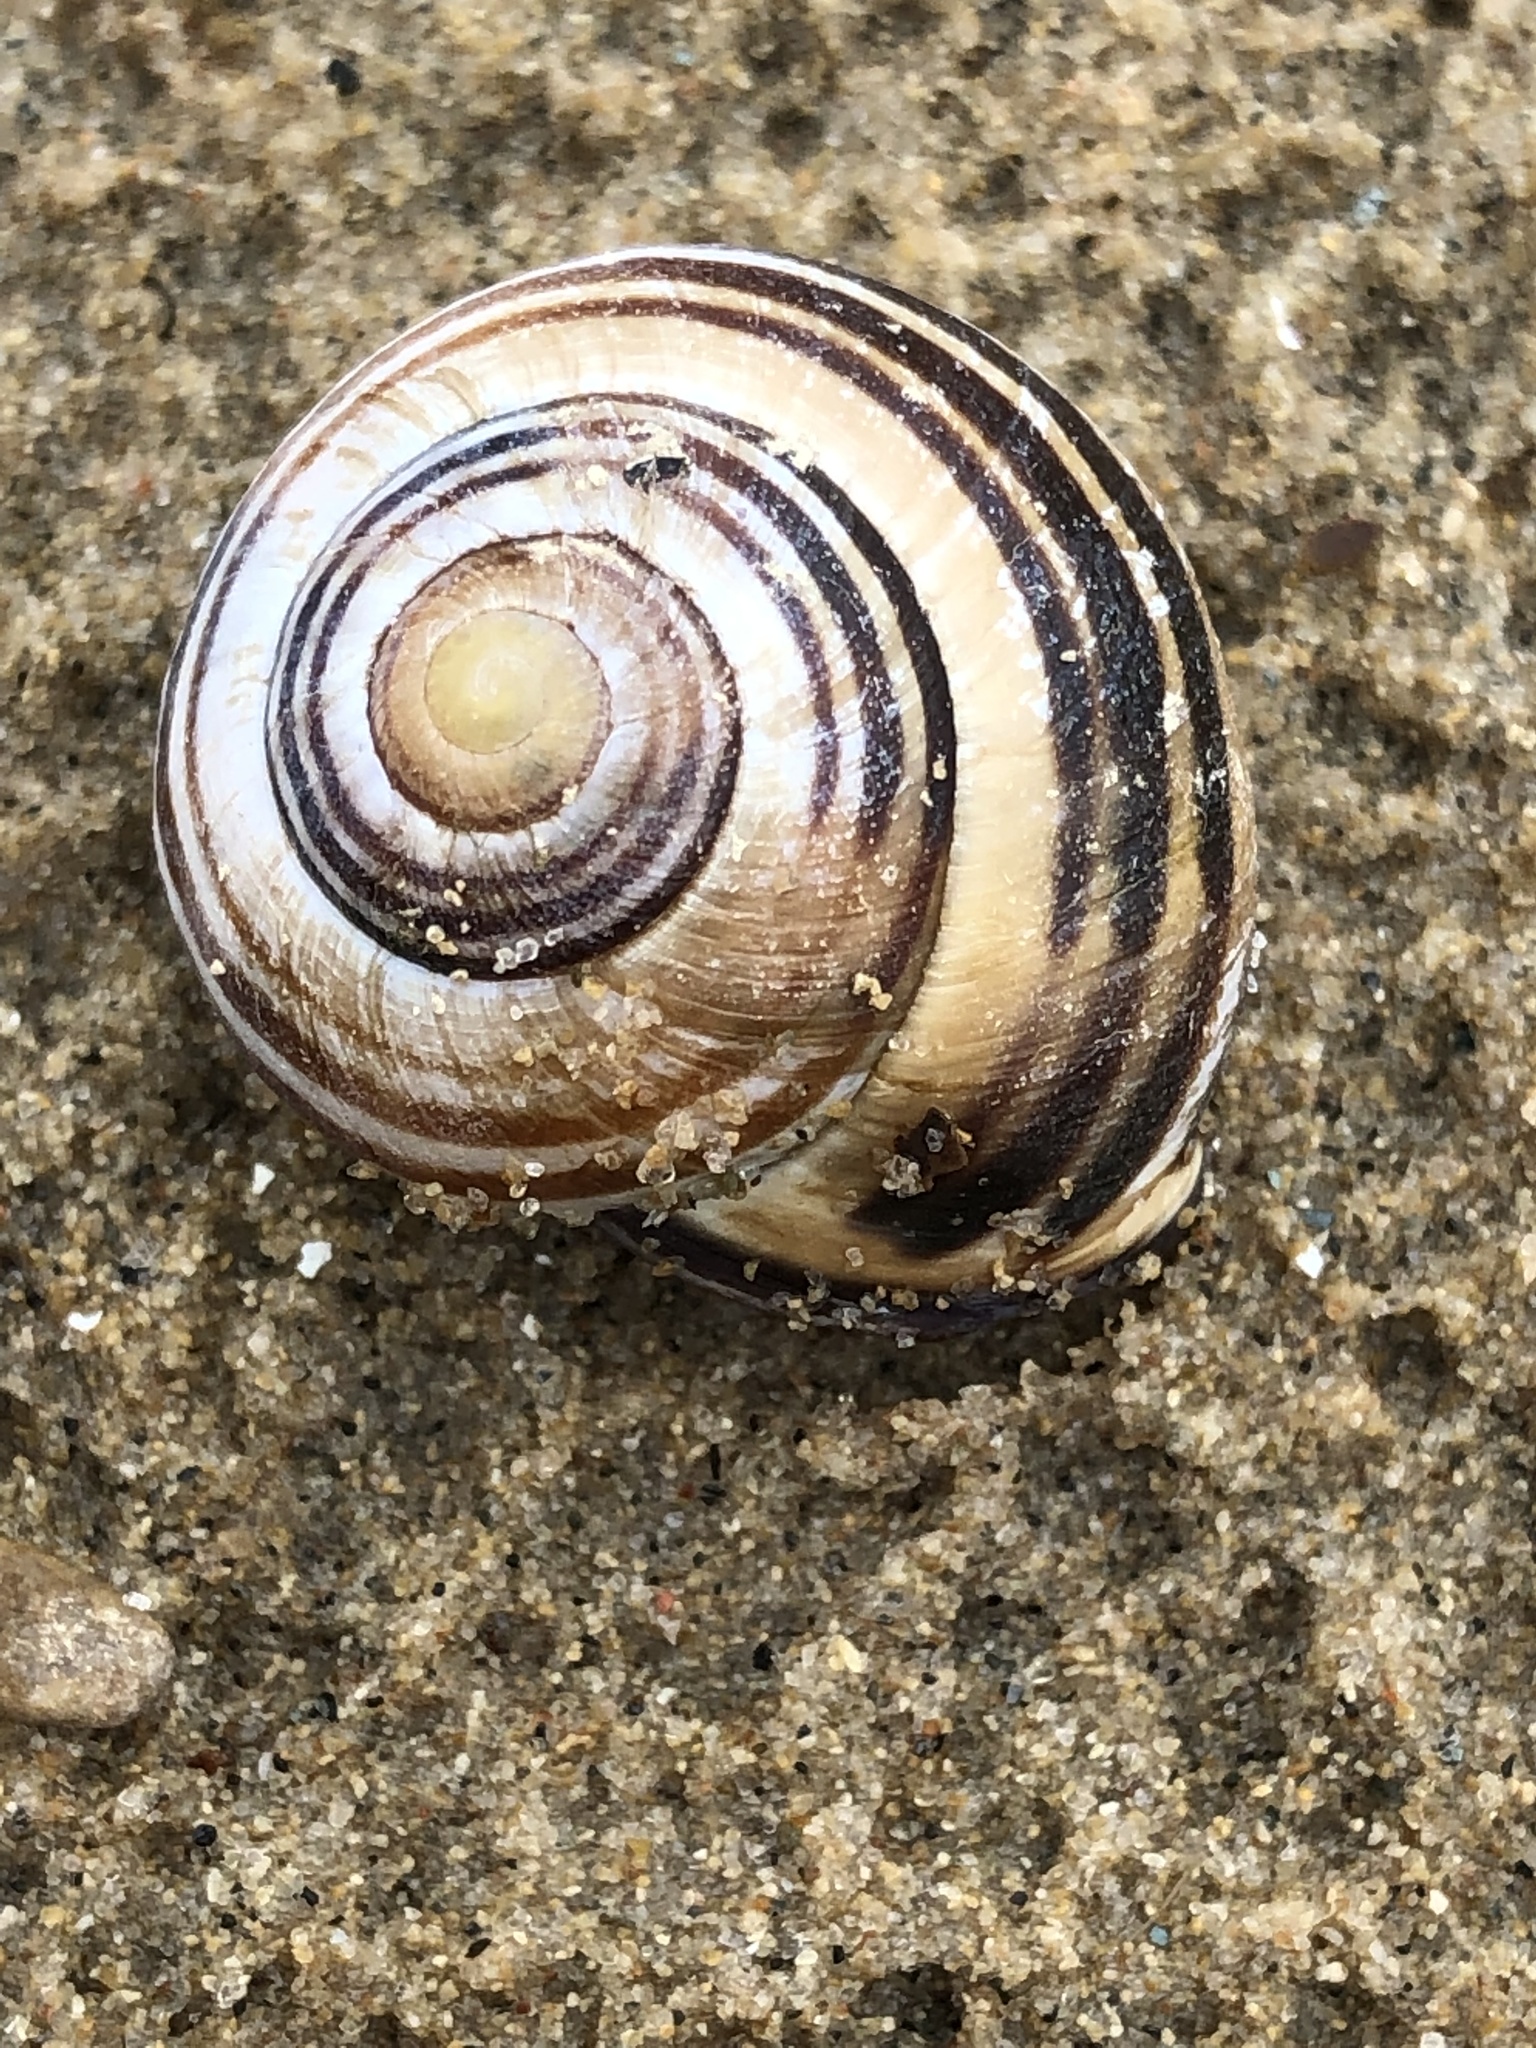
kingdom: Animalia
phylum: Mollusca
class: Gastropoda
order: Stylommatophora
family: Helicidae
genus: Cepaea
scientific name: Cepaea nemoralis
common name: Grovesnail
